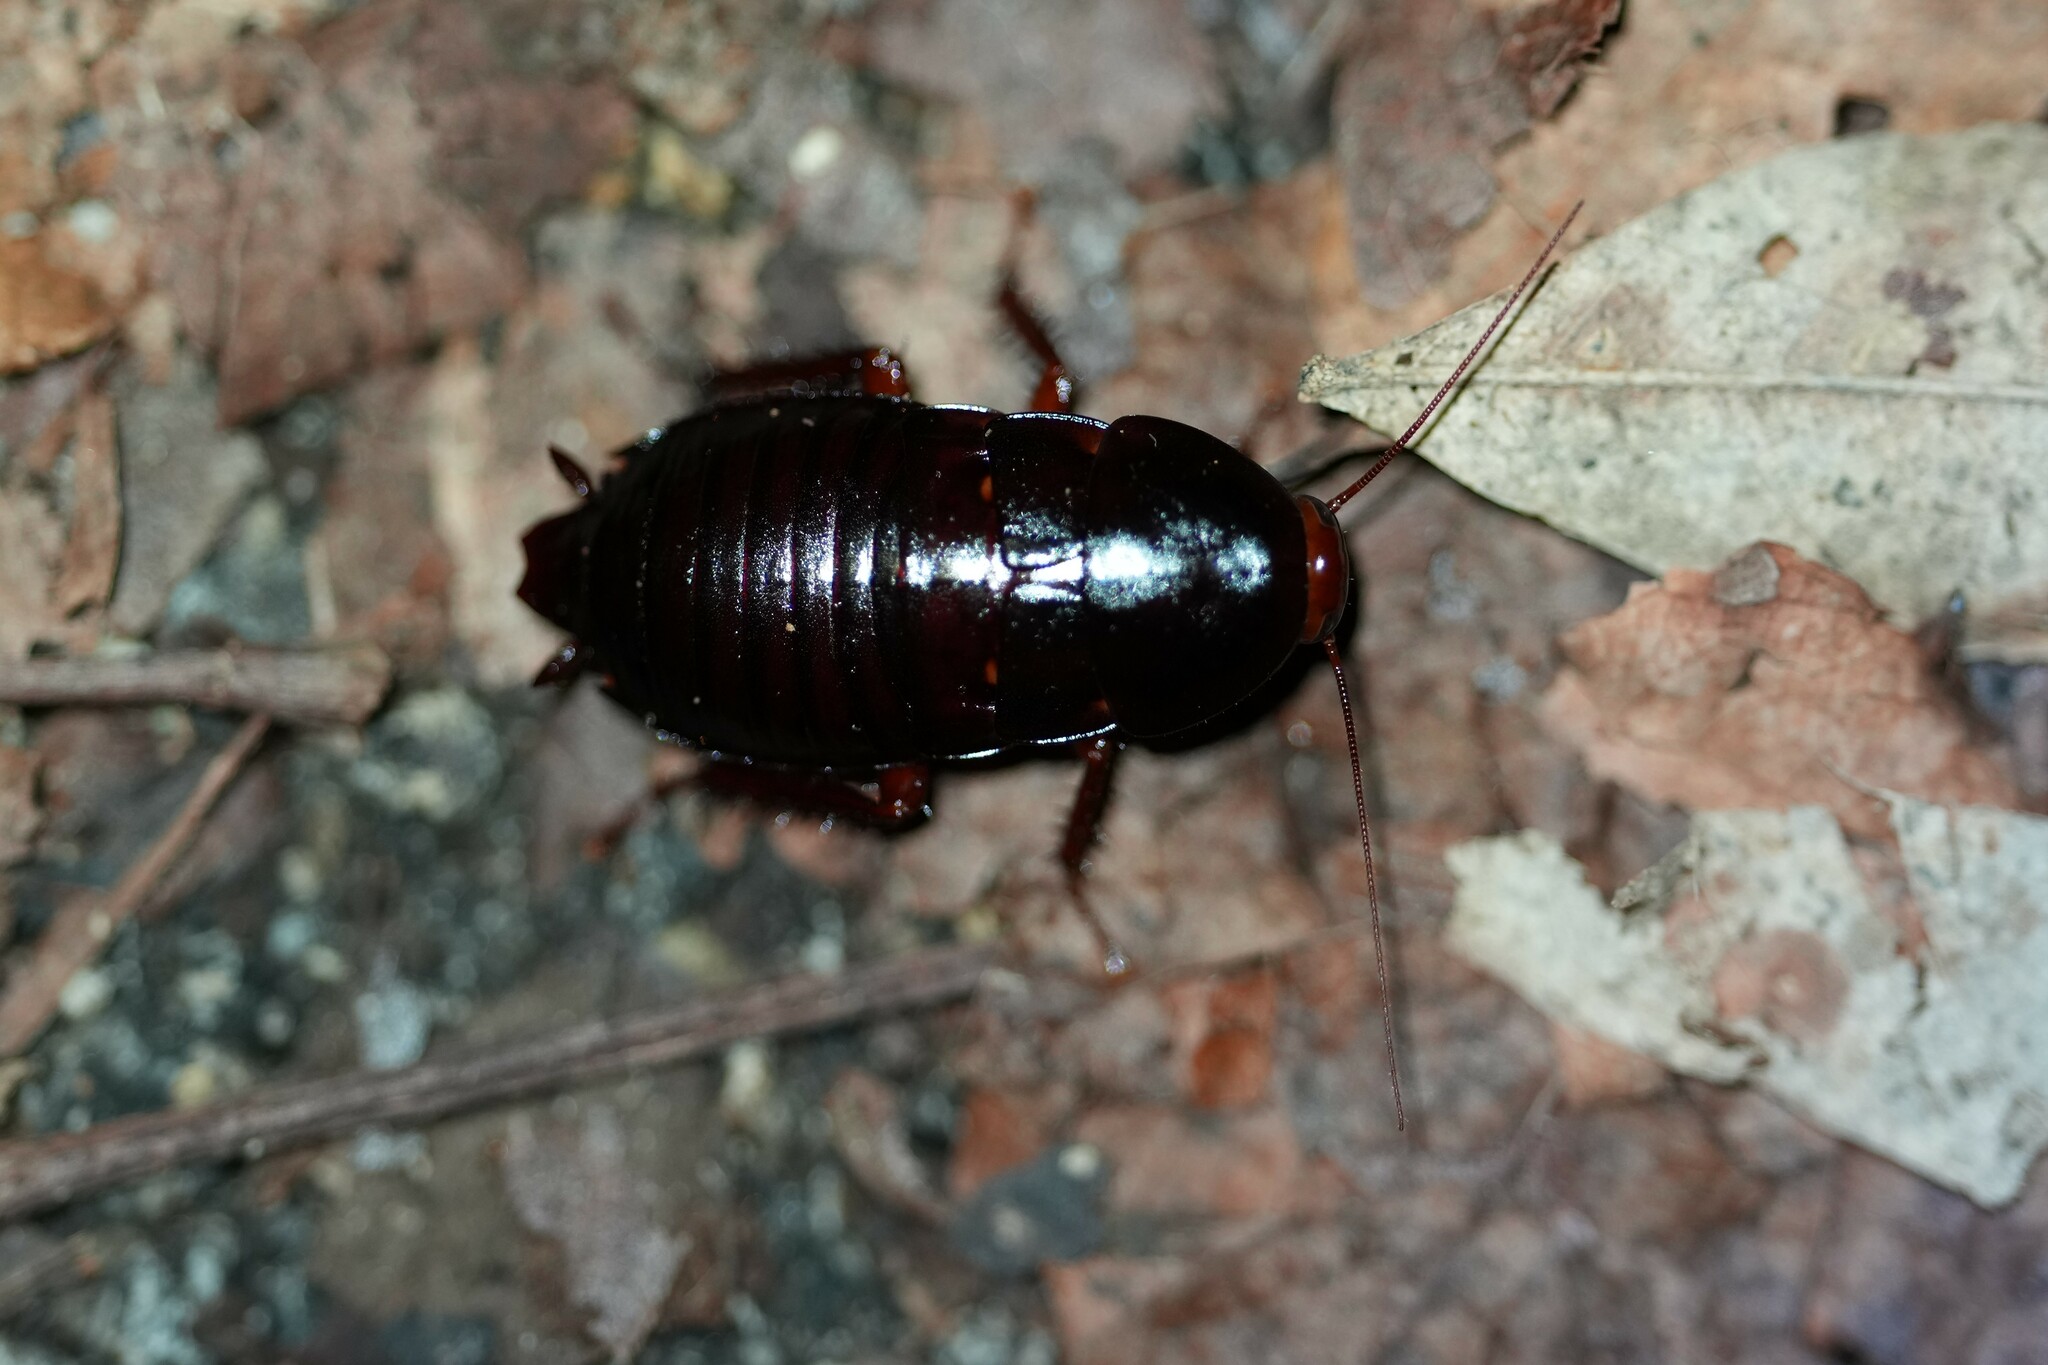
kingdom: Animalia
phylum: Arthropoda
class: Insecta
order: Blattodea
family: Blattidae
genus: Eurycotis
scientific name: Eurycotis floridana
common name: Florida cockroach
